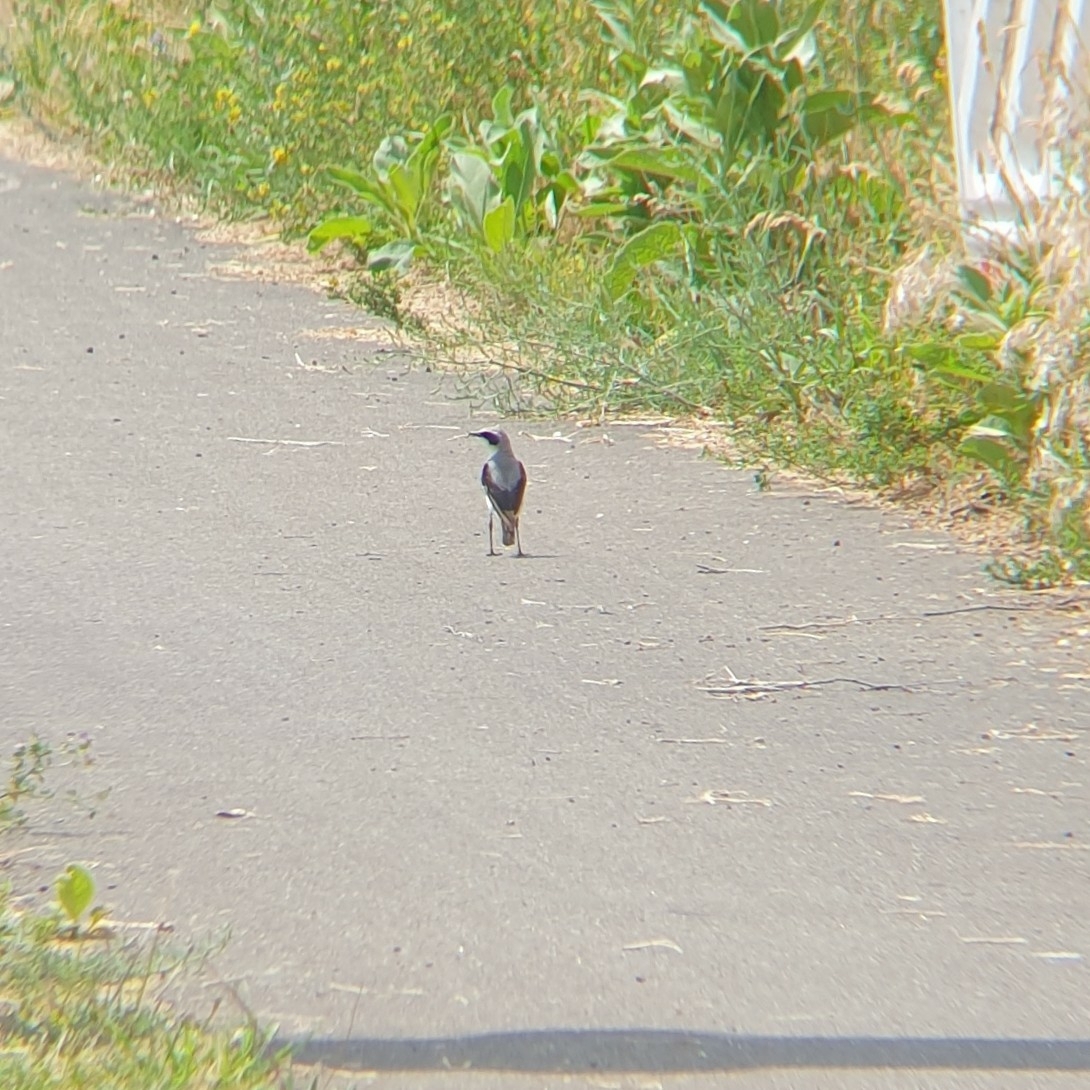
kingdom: Animalia
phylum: Chordata
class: Aves
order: Passeriformes
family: Muscicapidae
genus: Oenanthe
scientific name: Oenanthe oenanthe
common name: Northern wheatear
